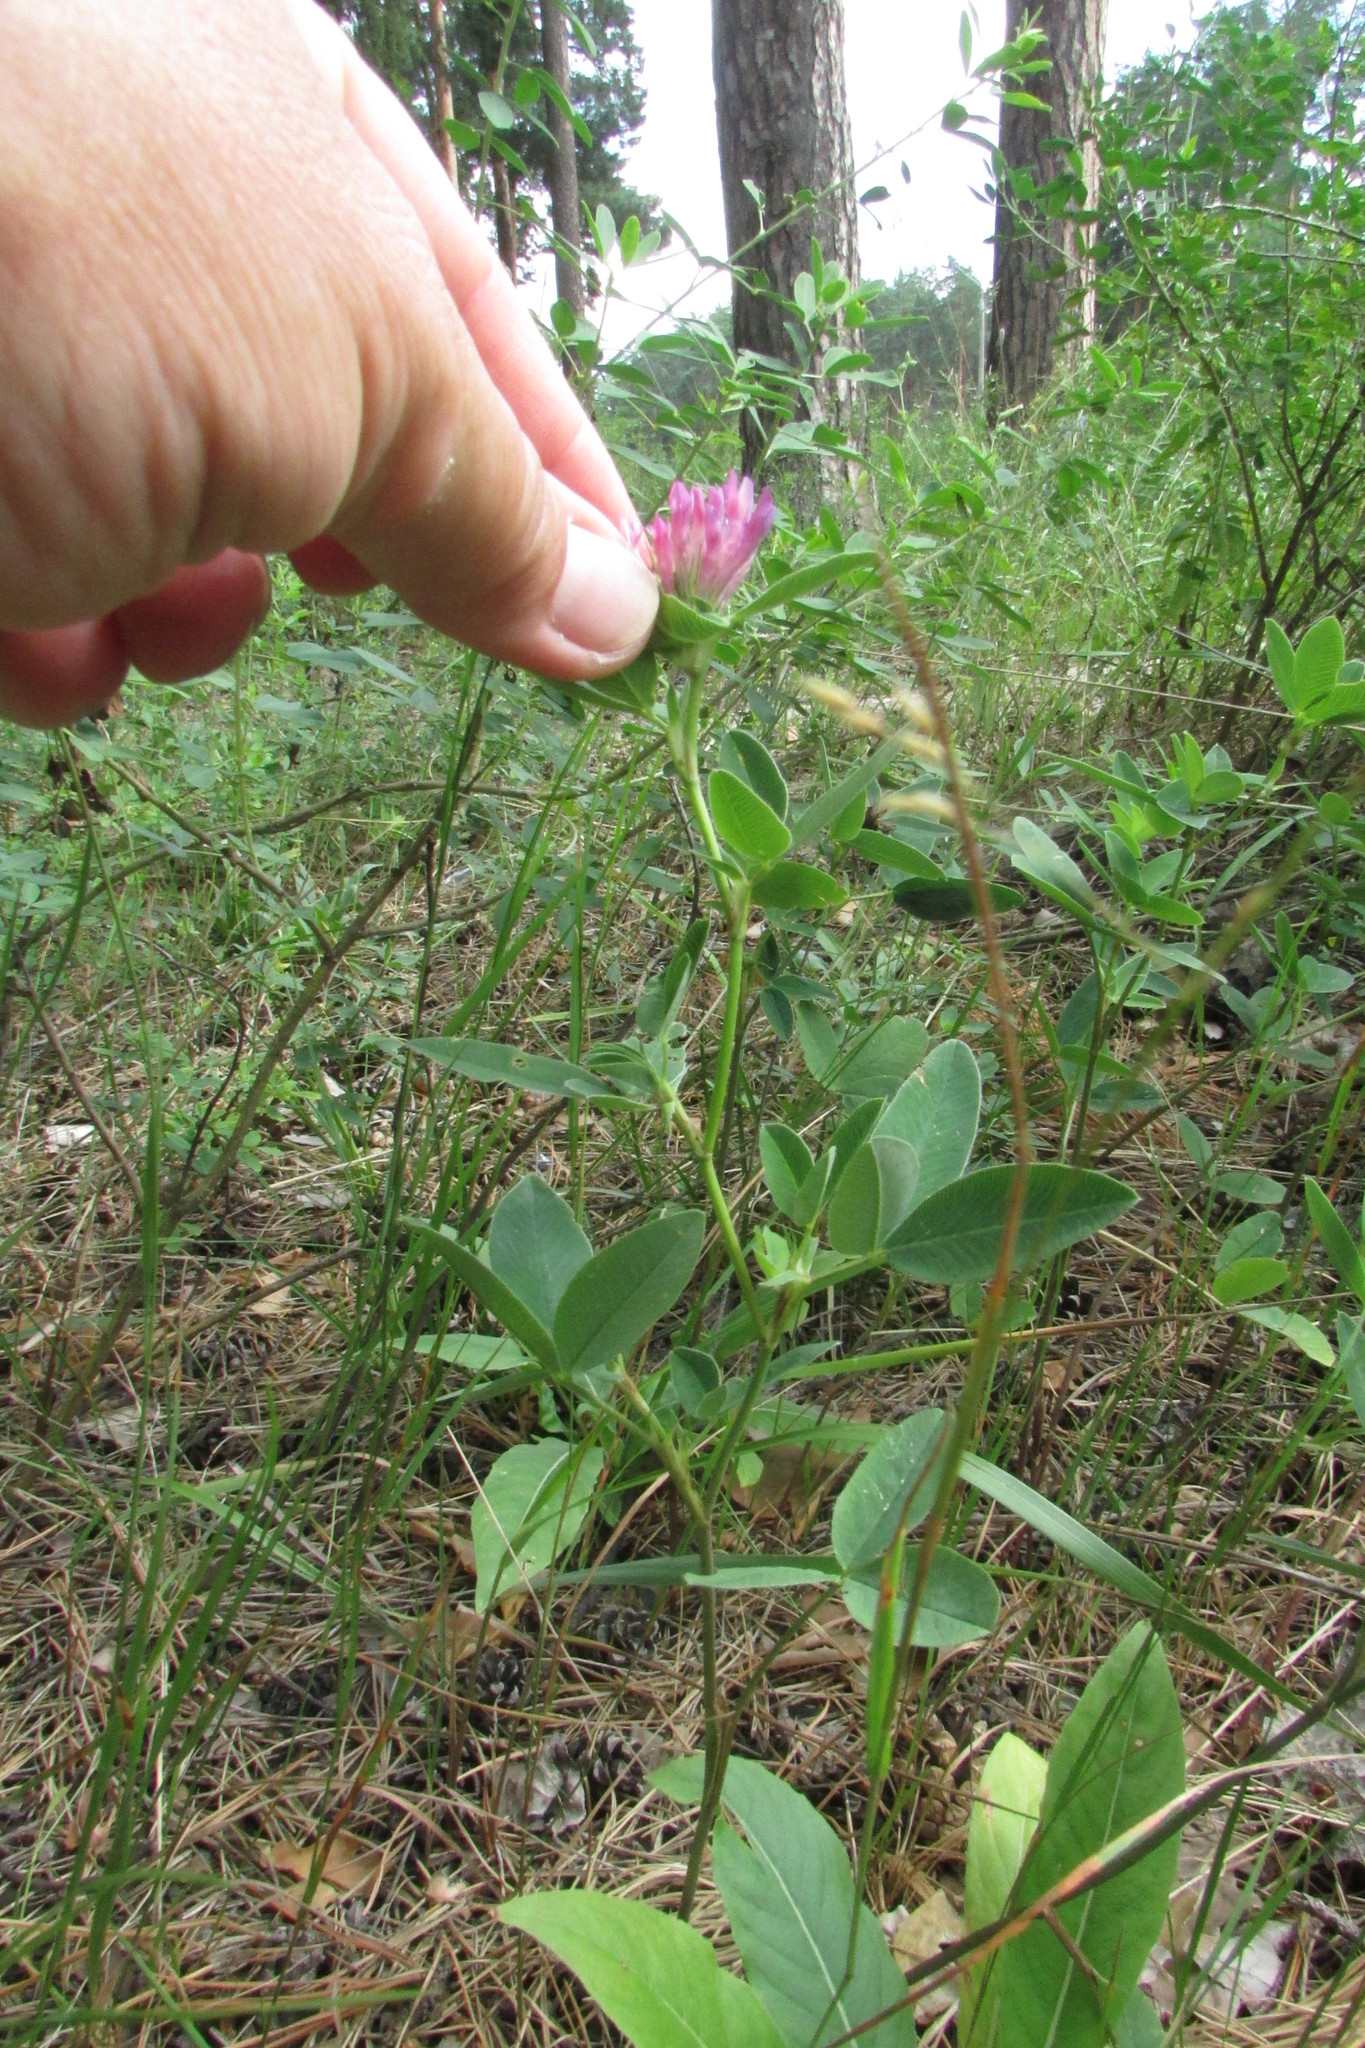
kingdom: Plantae
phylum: Tracheophyta
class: Magnoliopsida
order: Fabales
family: Fabaceae
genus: Trifolium
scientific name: Trifolium medium
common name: Zigzag clover
